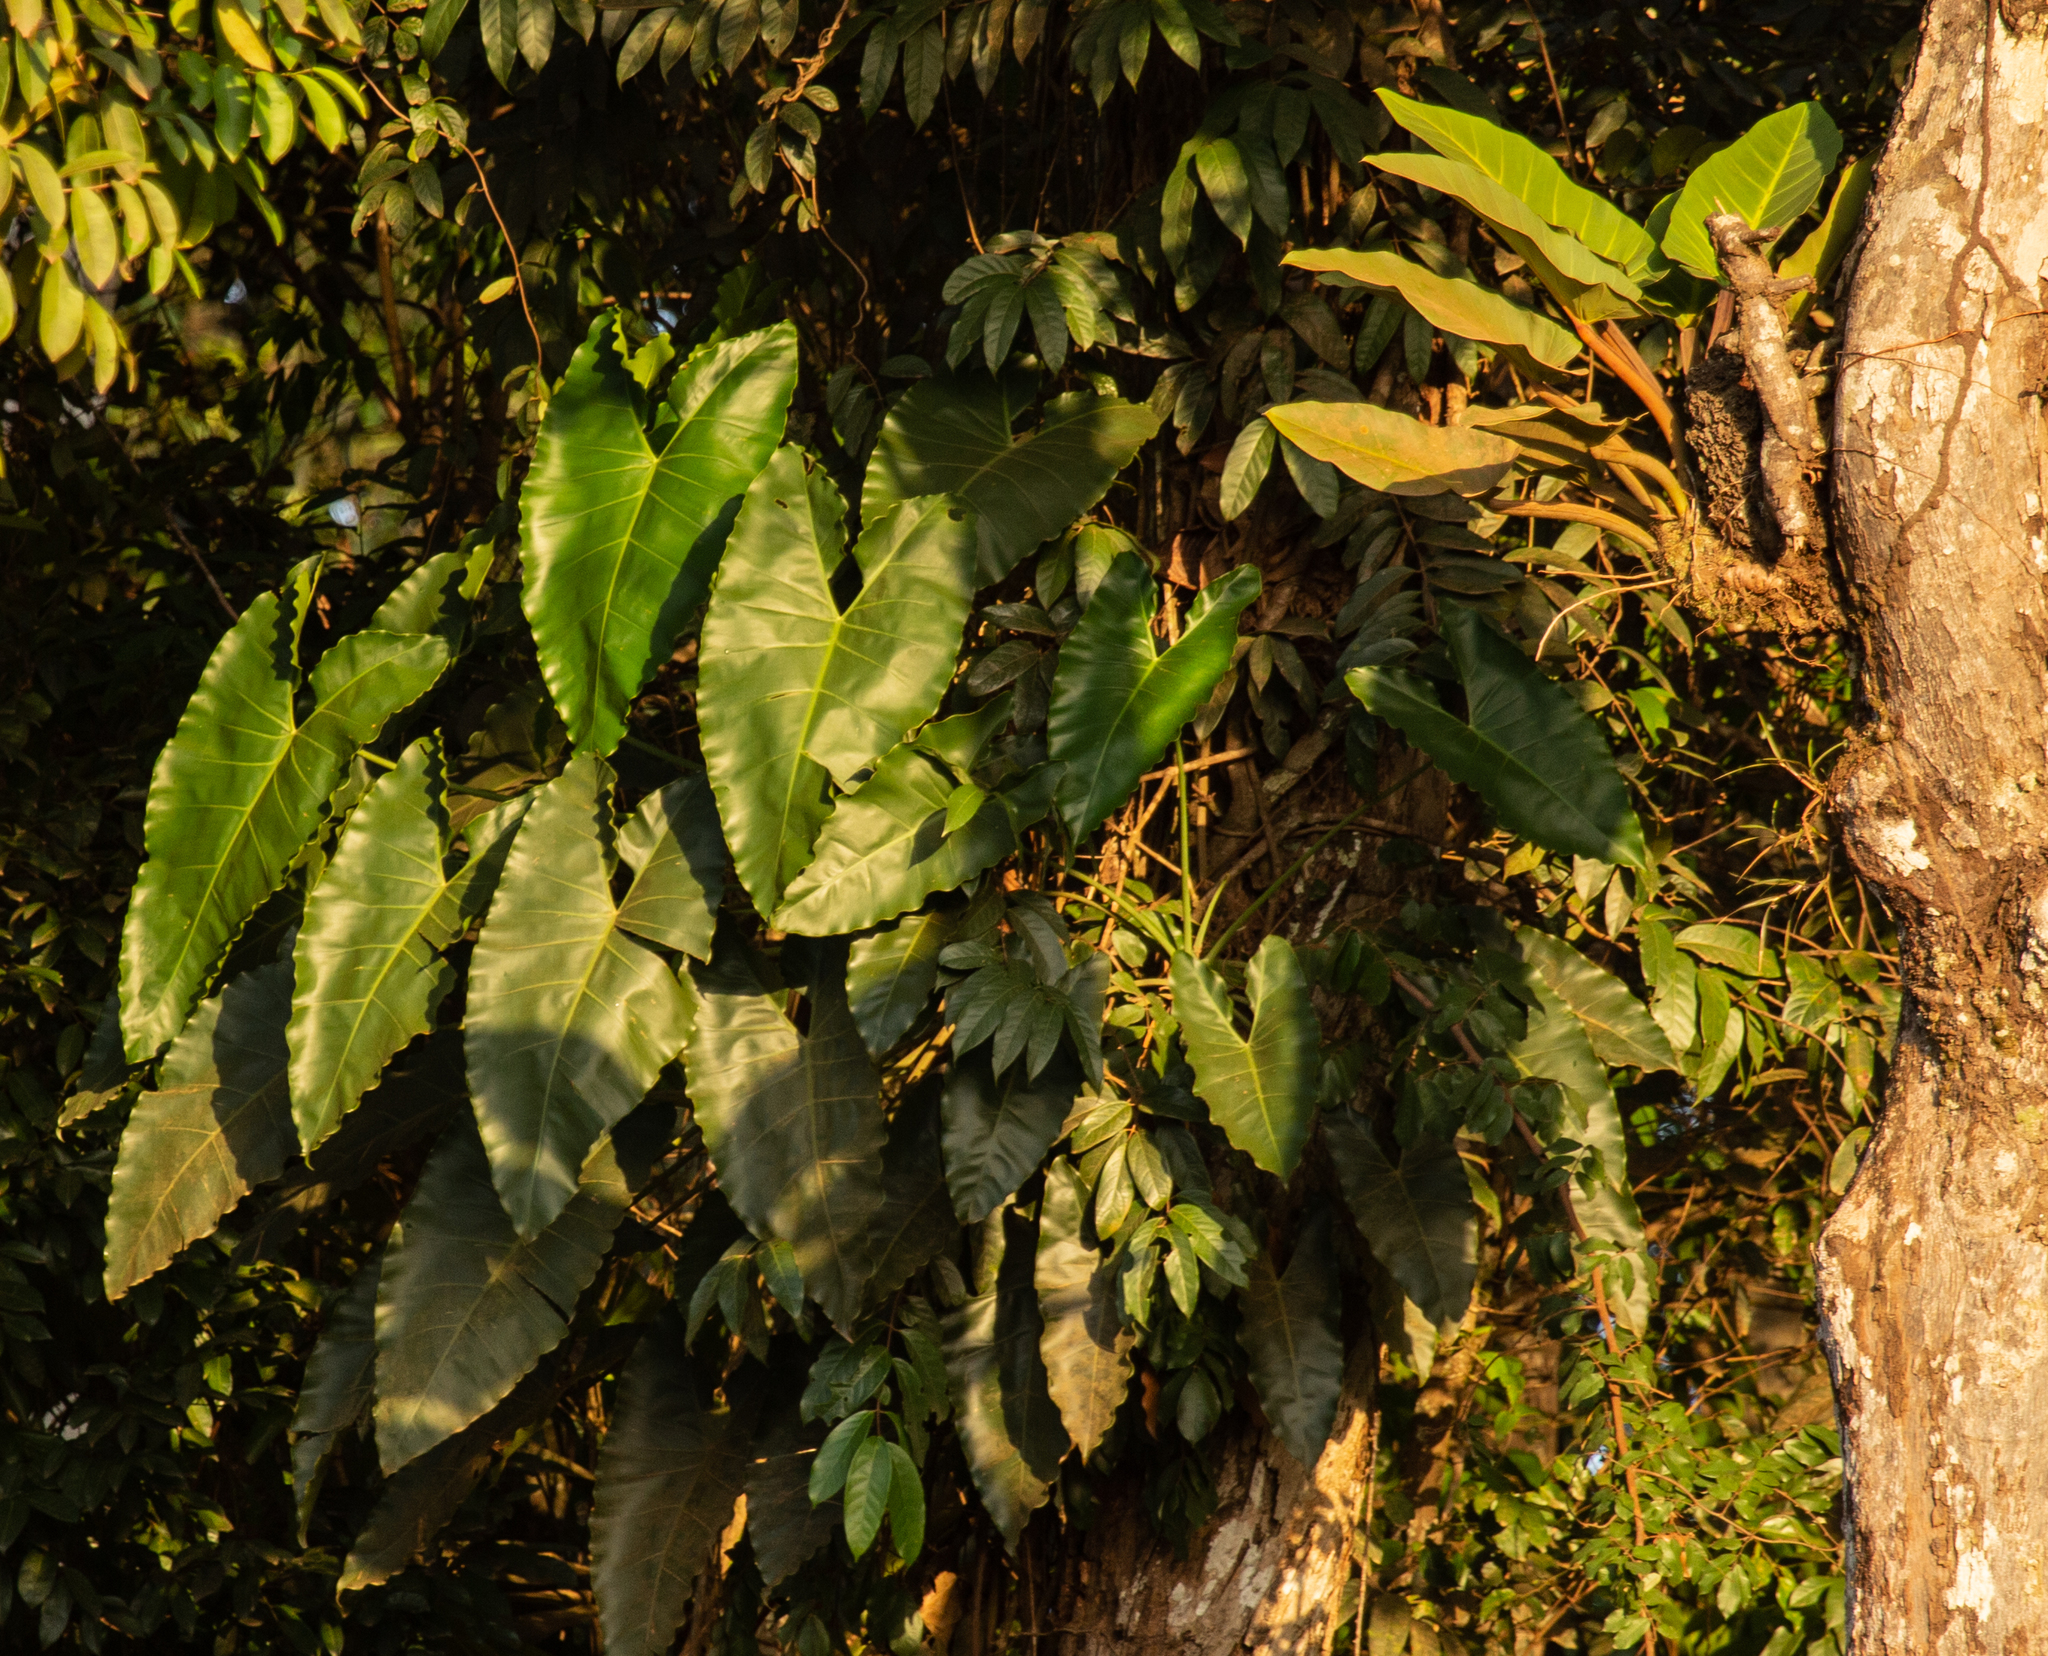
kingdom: Plantae
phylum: Tracheophyta
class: Liliopsida
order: Alismatales
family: Araceae
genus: Thaumatophyllum
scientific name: Thaumatophyllum solimoesense
